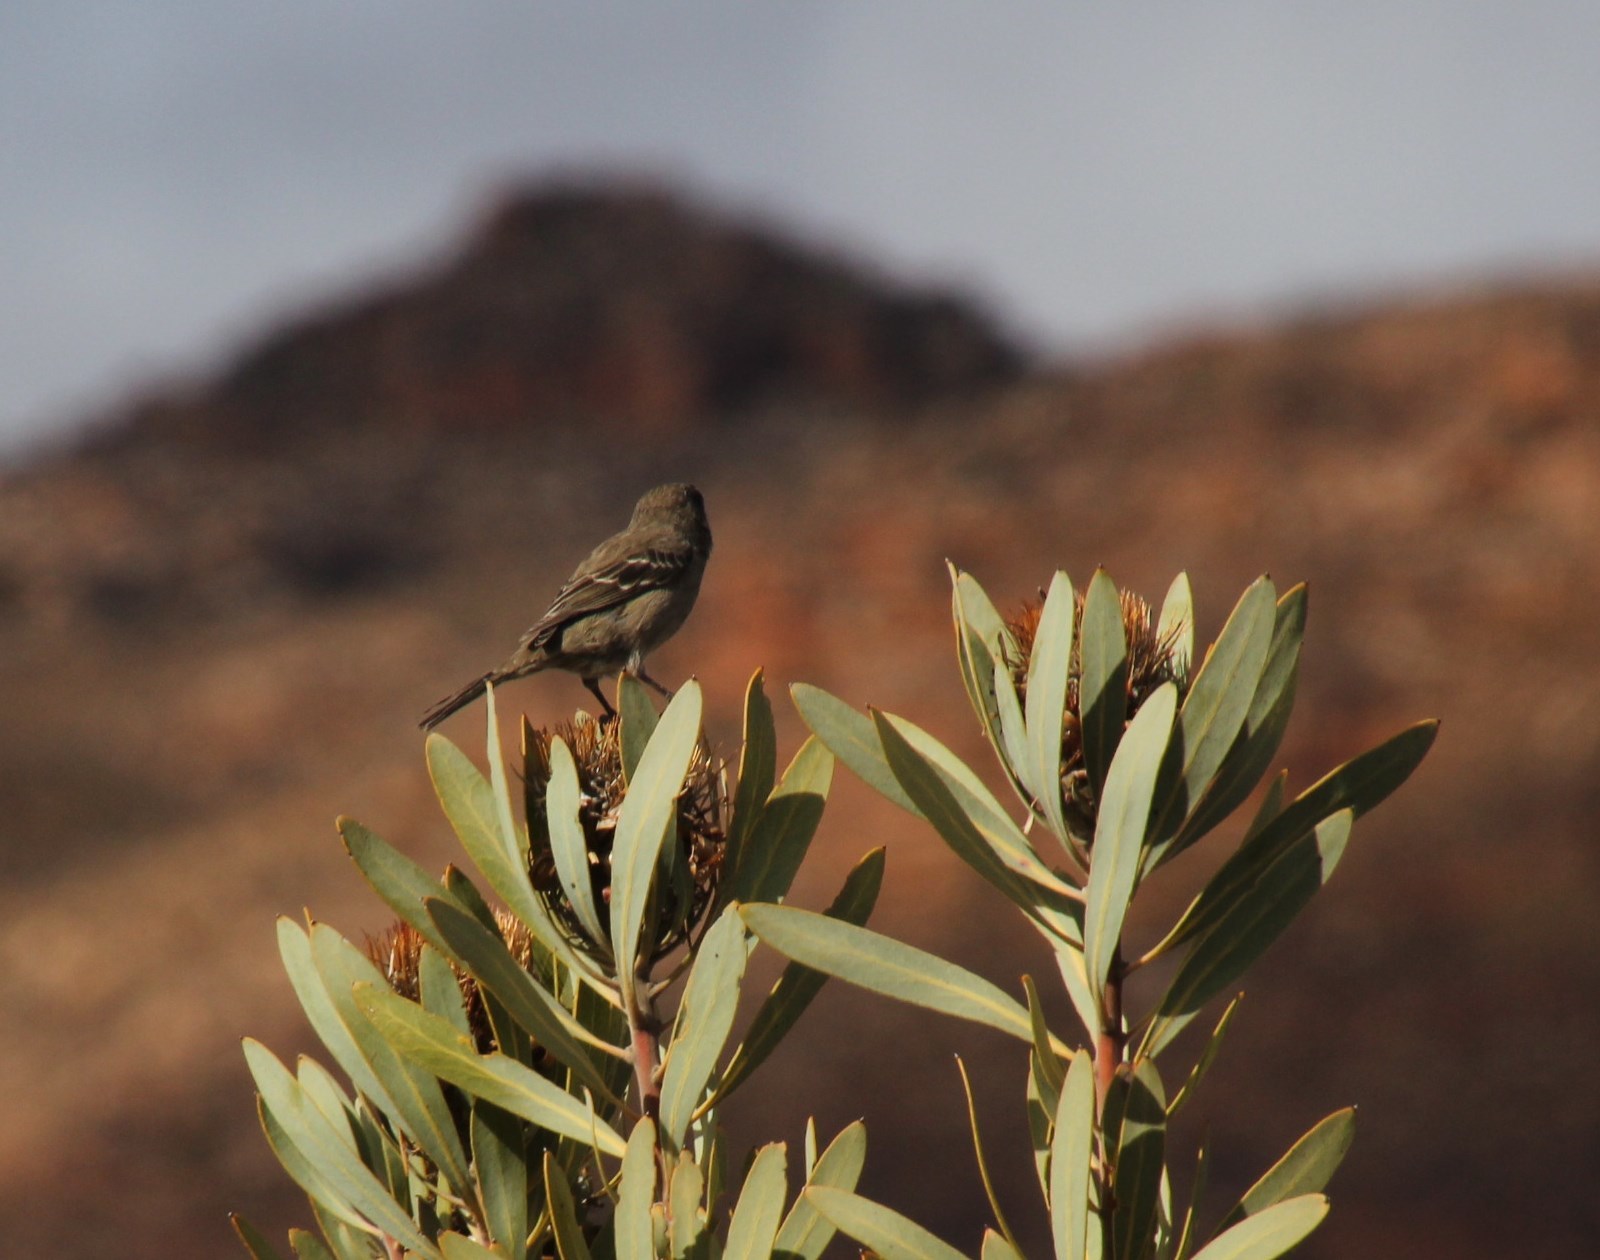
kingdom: Animalia
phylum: Chordata
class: Aves
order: Passeriformes
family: Fringillidae
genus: Crithagra
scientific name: Crithagra leucoptera
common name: Protea canary
